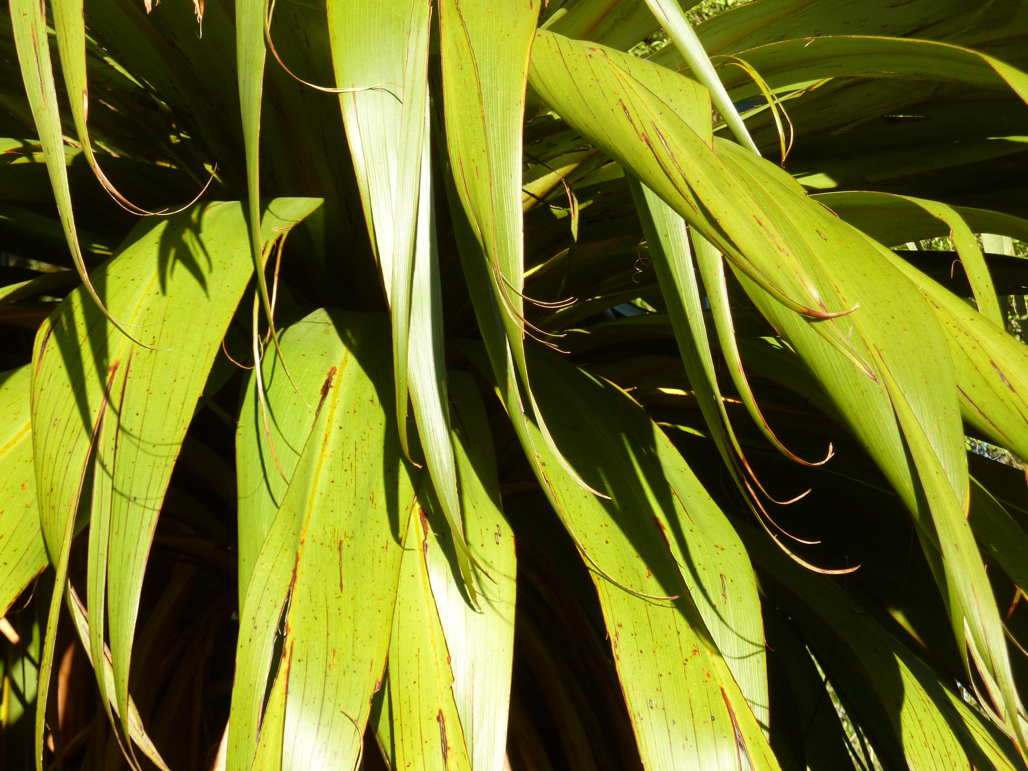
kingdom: Plantae
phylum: Tracheophyta
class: Liliopsida
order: Asparagales
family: Asparagaceae
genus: Cordyline
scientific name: Cordyline indivisa
